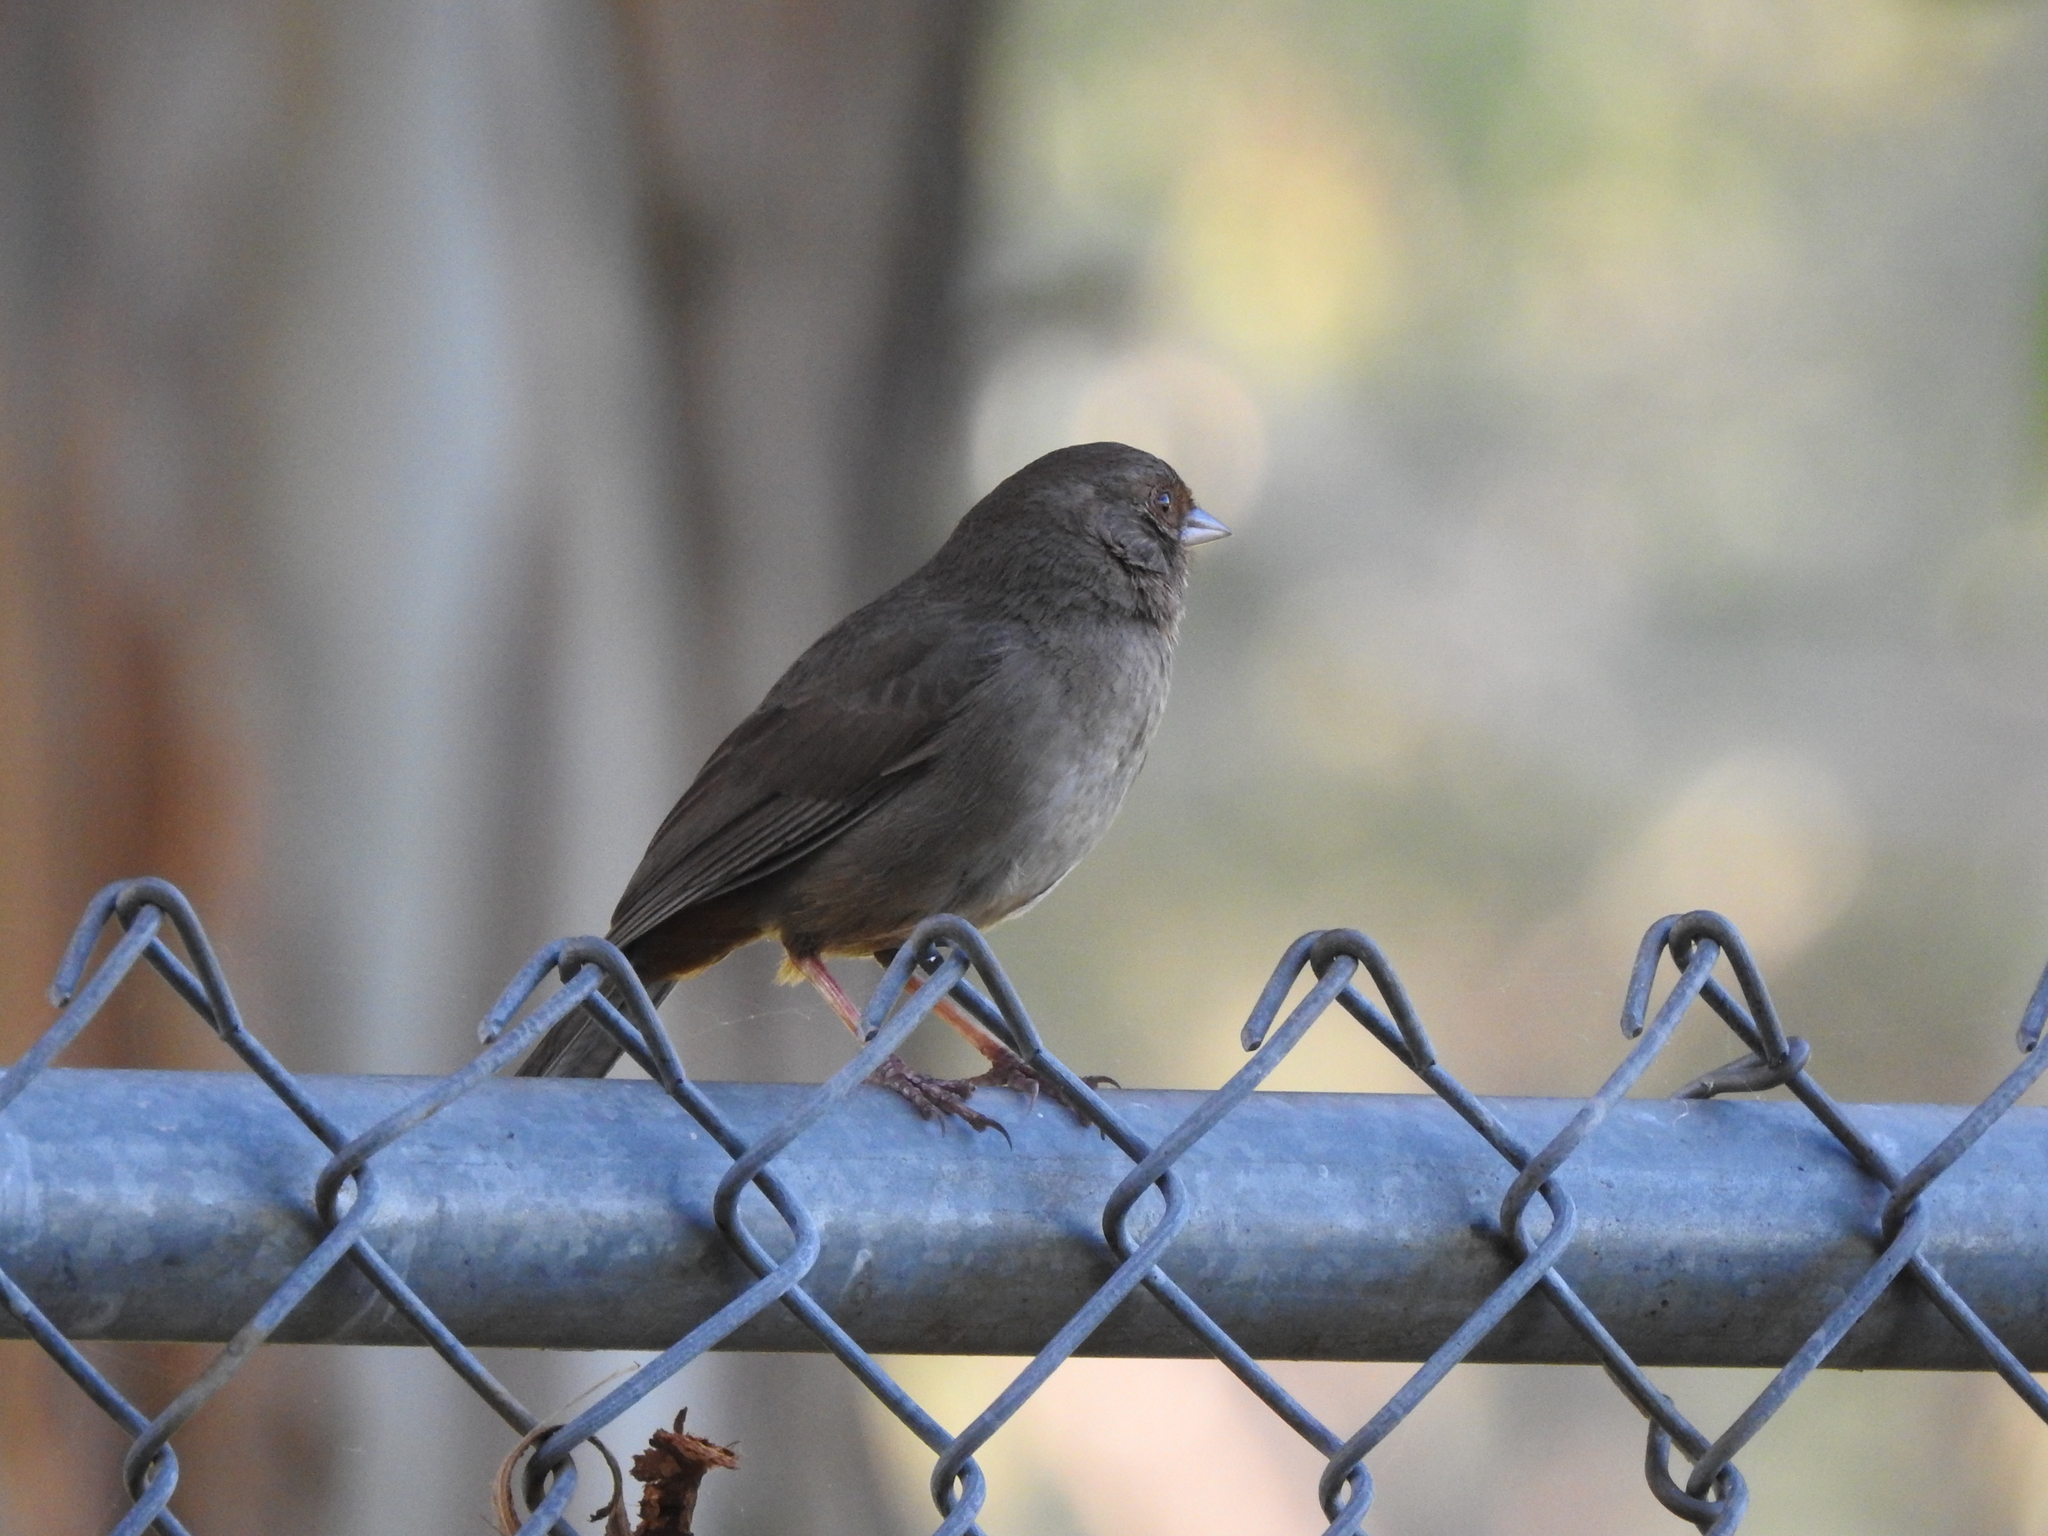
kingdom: Animalia
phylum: Chordata
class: Aves
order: Passeriformes
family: Passerellidae
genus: Melozone
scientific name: Melozone crissalis
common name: California towhee
